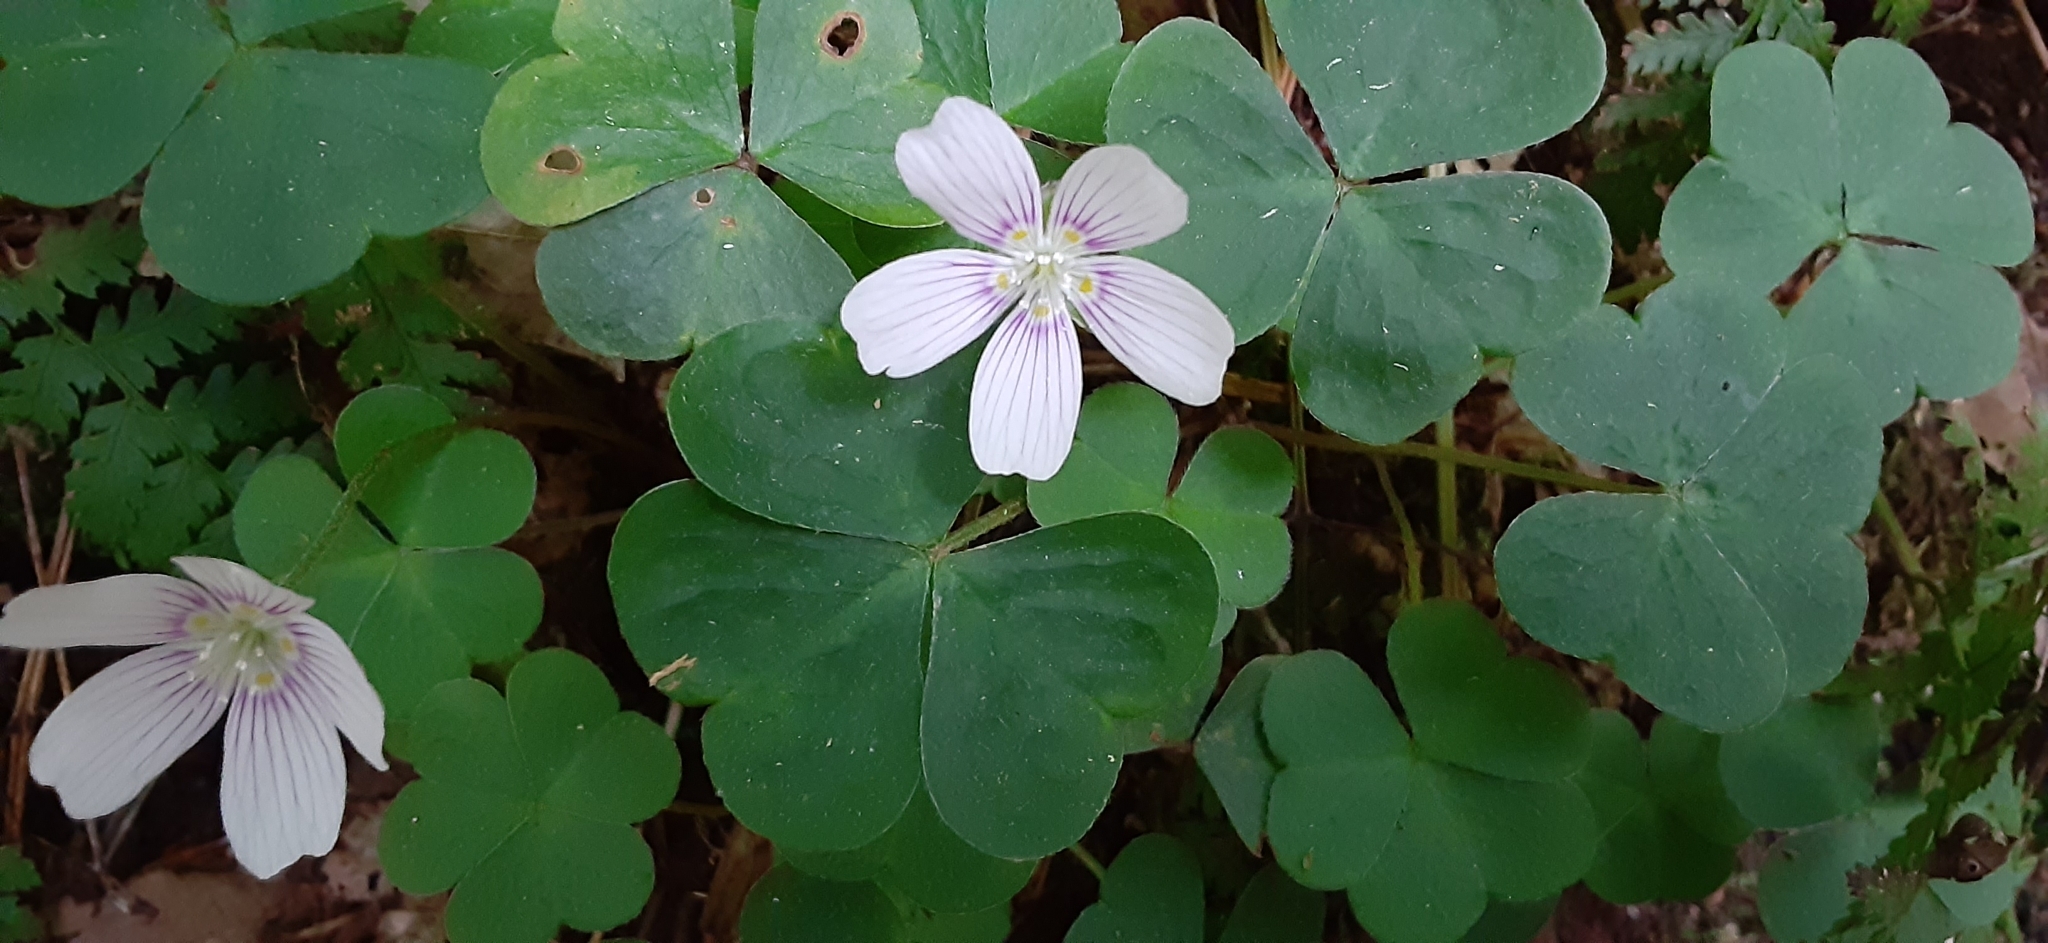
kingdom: Plantae
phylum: Tracheophyta
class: Magnoliopsida
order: Oxalidales
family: Oxalidaceae
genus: Oxalis
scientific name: Oxalis montana
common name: American wood-sorrel
